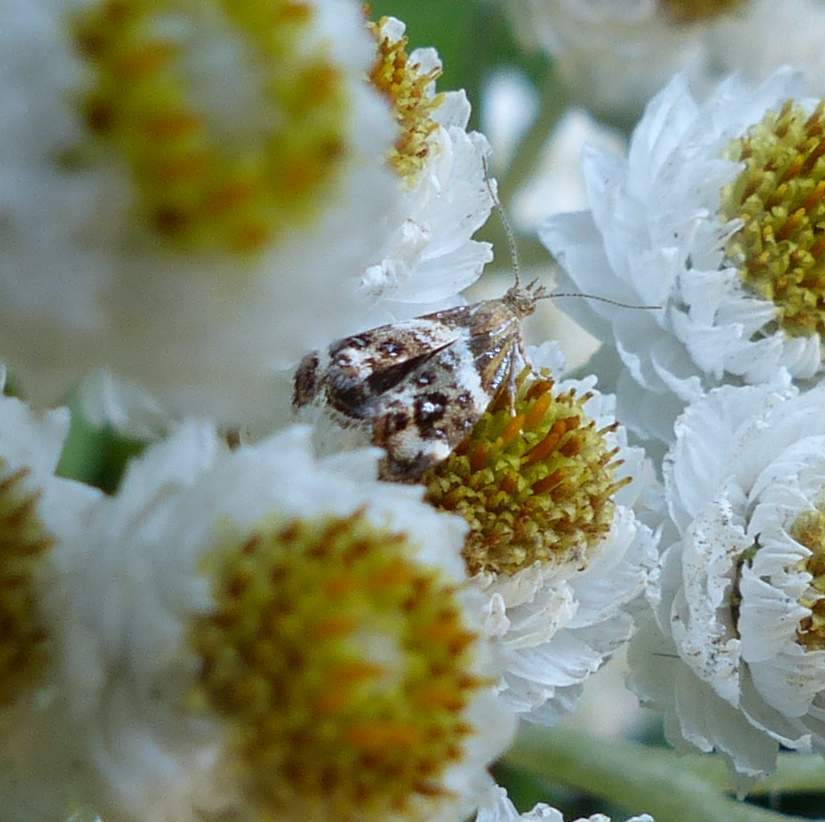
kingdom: Animalia
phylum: Arthropoda
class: Insecta
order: Lepidoptera
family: Choreutidae
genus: Tebenna
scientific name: Tebenna onustana
